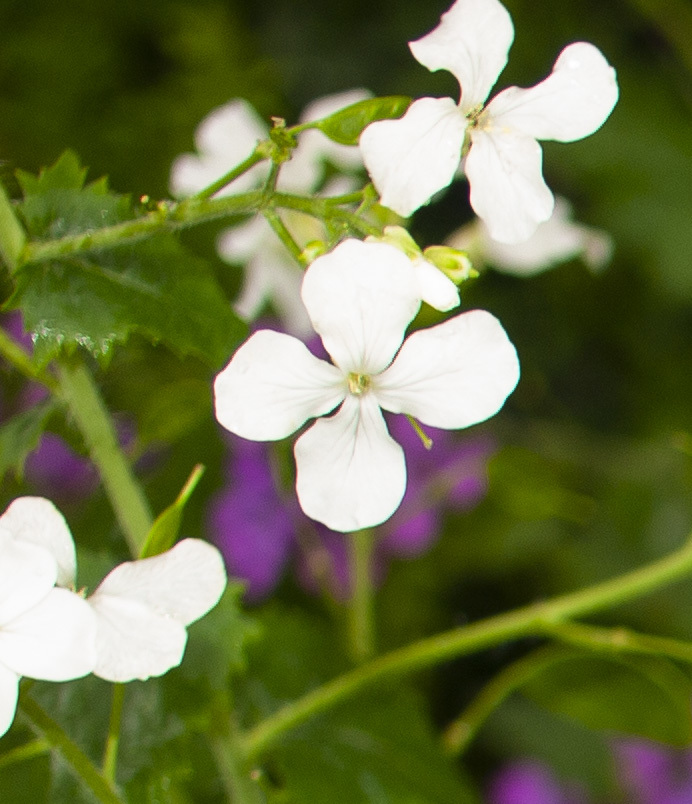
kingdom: Plantae
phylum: Tracheophyta
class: Magnoliopsida
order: Brassicales
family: Brassicaceae
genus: Lunaria
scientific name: Lunaria annua
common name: Honesty
